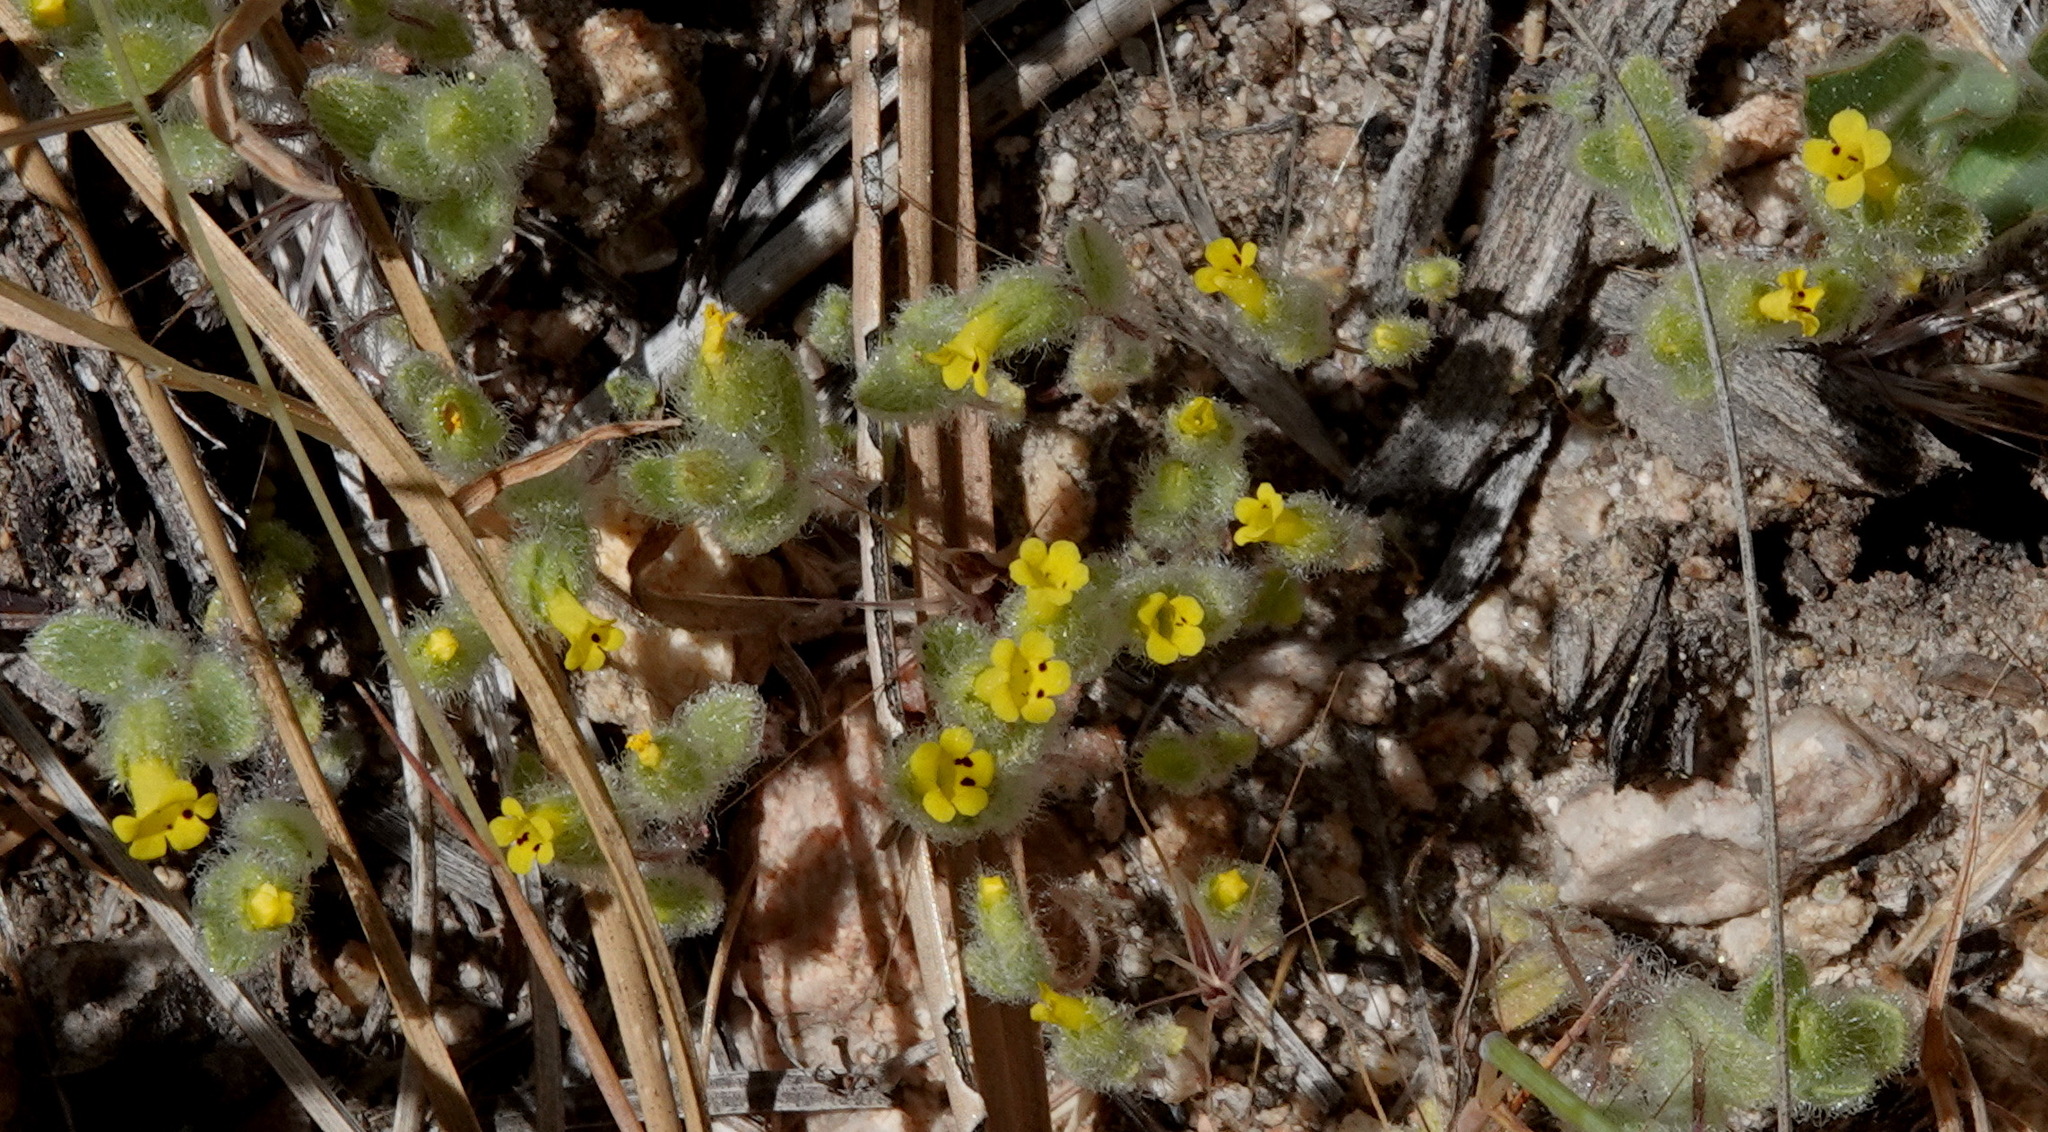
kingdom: Plantae
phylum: Tracheophyta
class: Magnoliopsida
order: Lamiales
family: Phrymaceae
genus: Mimetanthe
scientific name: Mimetanthe pilosa
